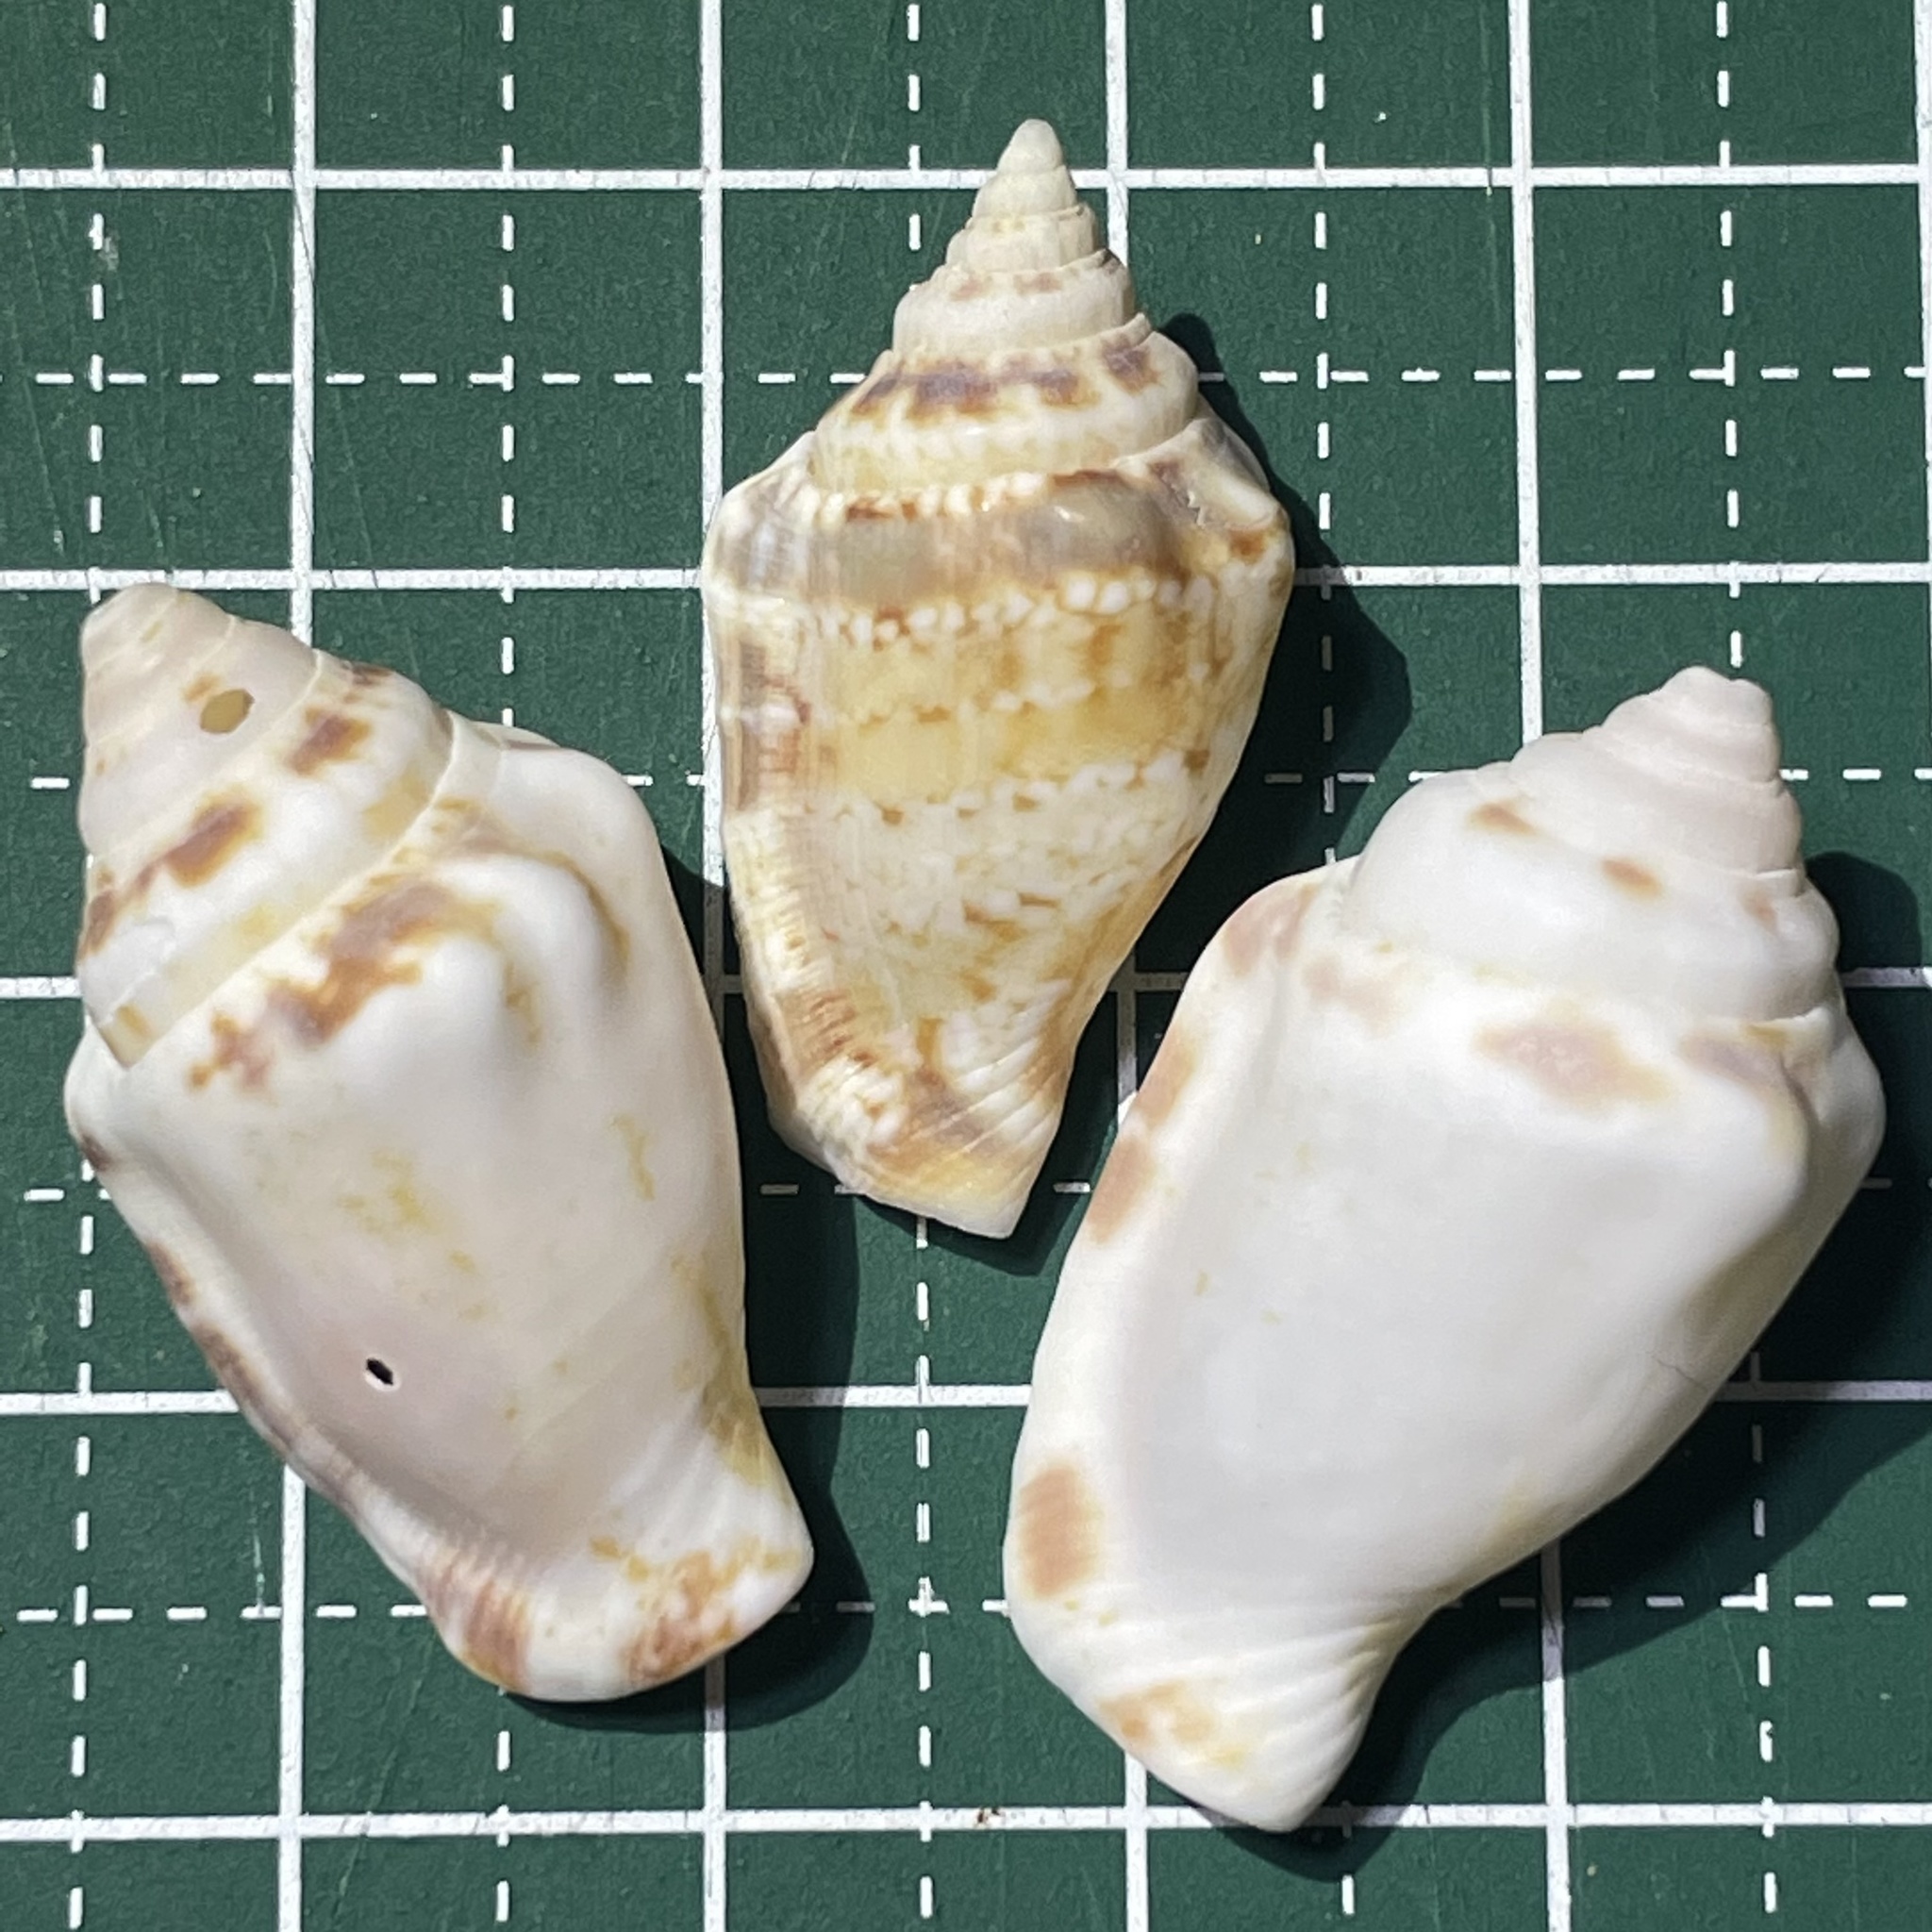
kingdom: Animalia
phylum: Mollusca
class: Gastropoda
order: Littorinimorpha
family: Strombidae
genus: Canarium
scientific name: Canarium mutabile
